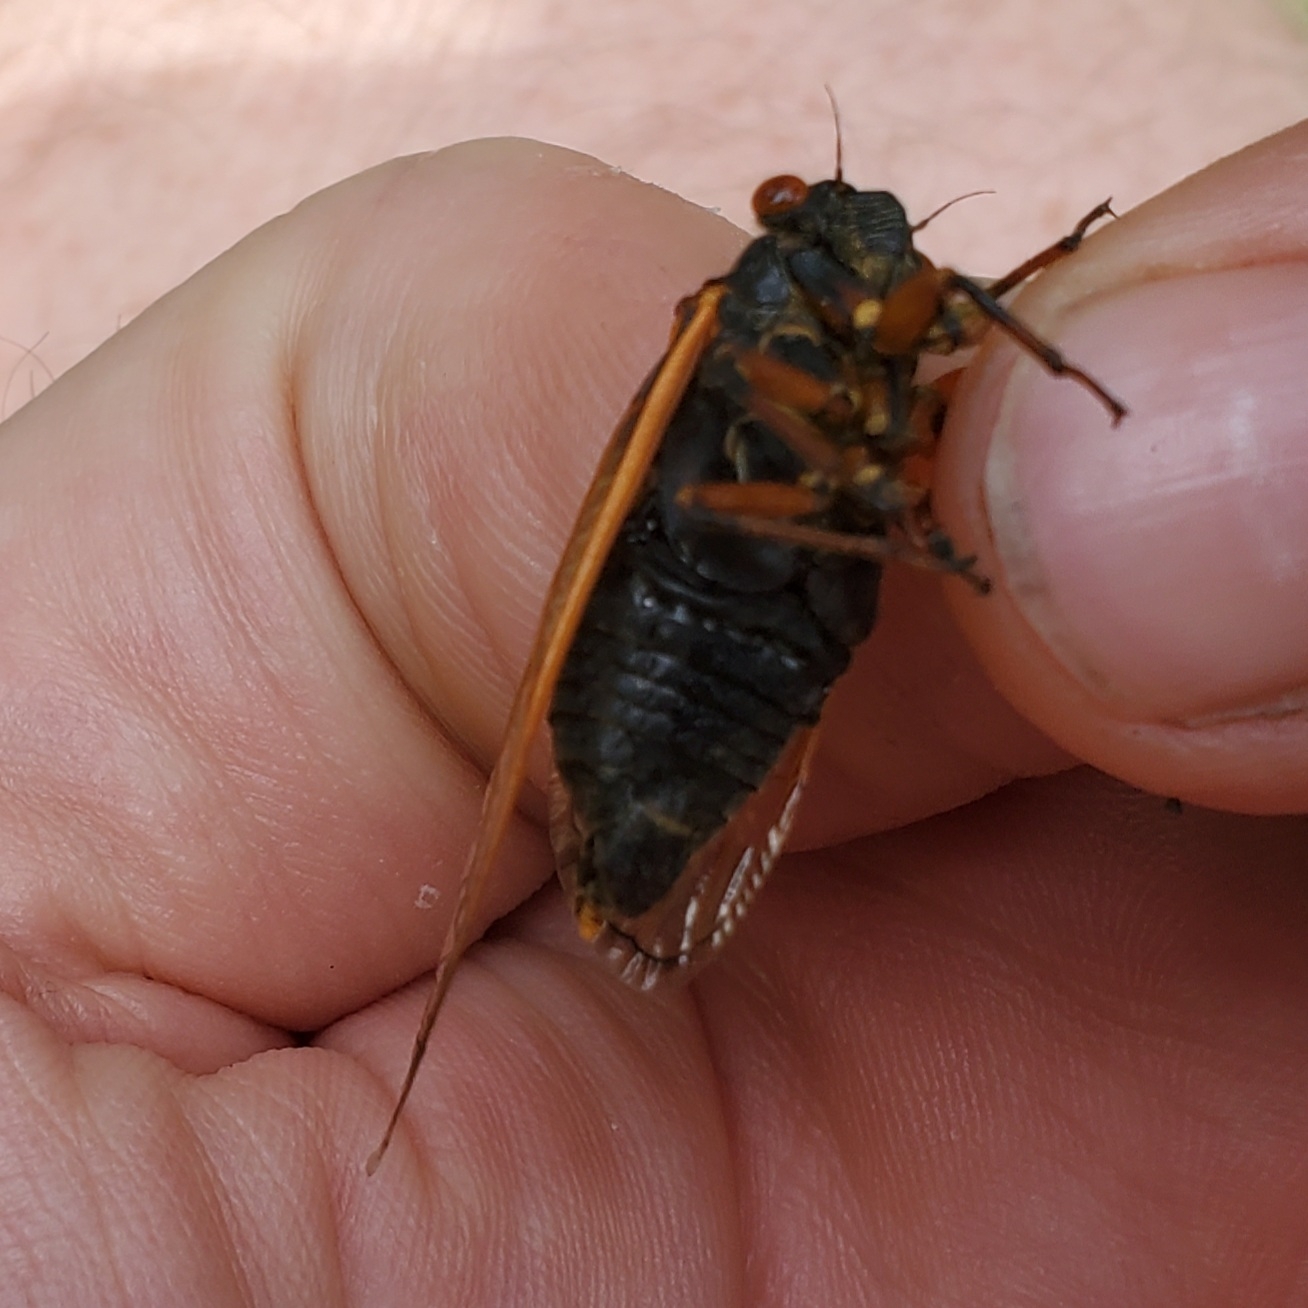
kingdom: Animalia
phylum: Arthropoda
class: Insecta
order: Hemiptera
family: Cicadidae
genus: Magicicada
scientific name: Magicicada cassini
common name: Cassin's 17-year cicada
